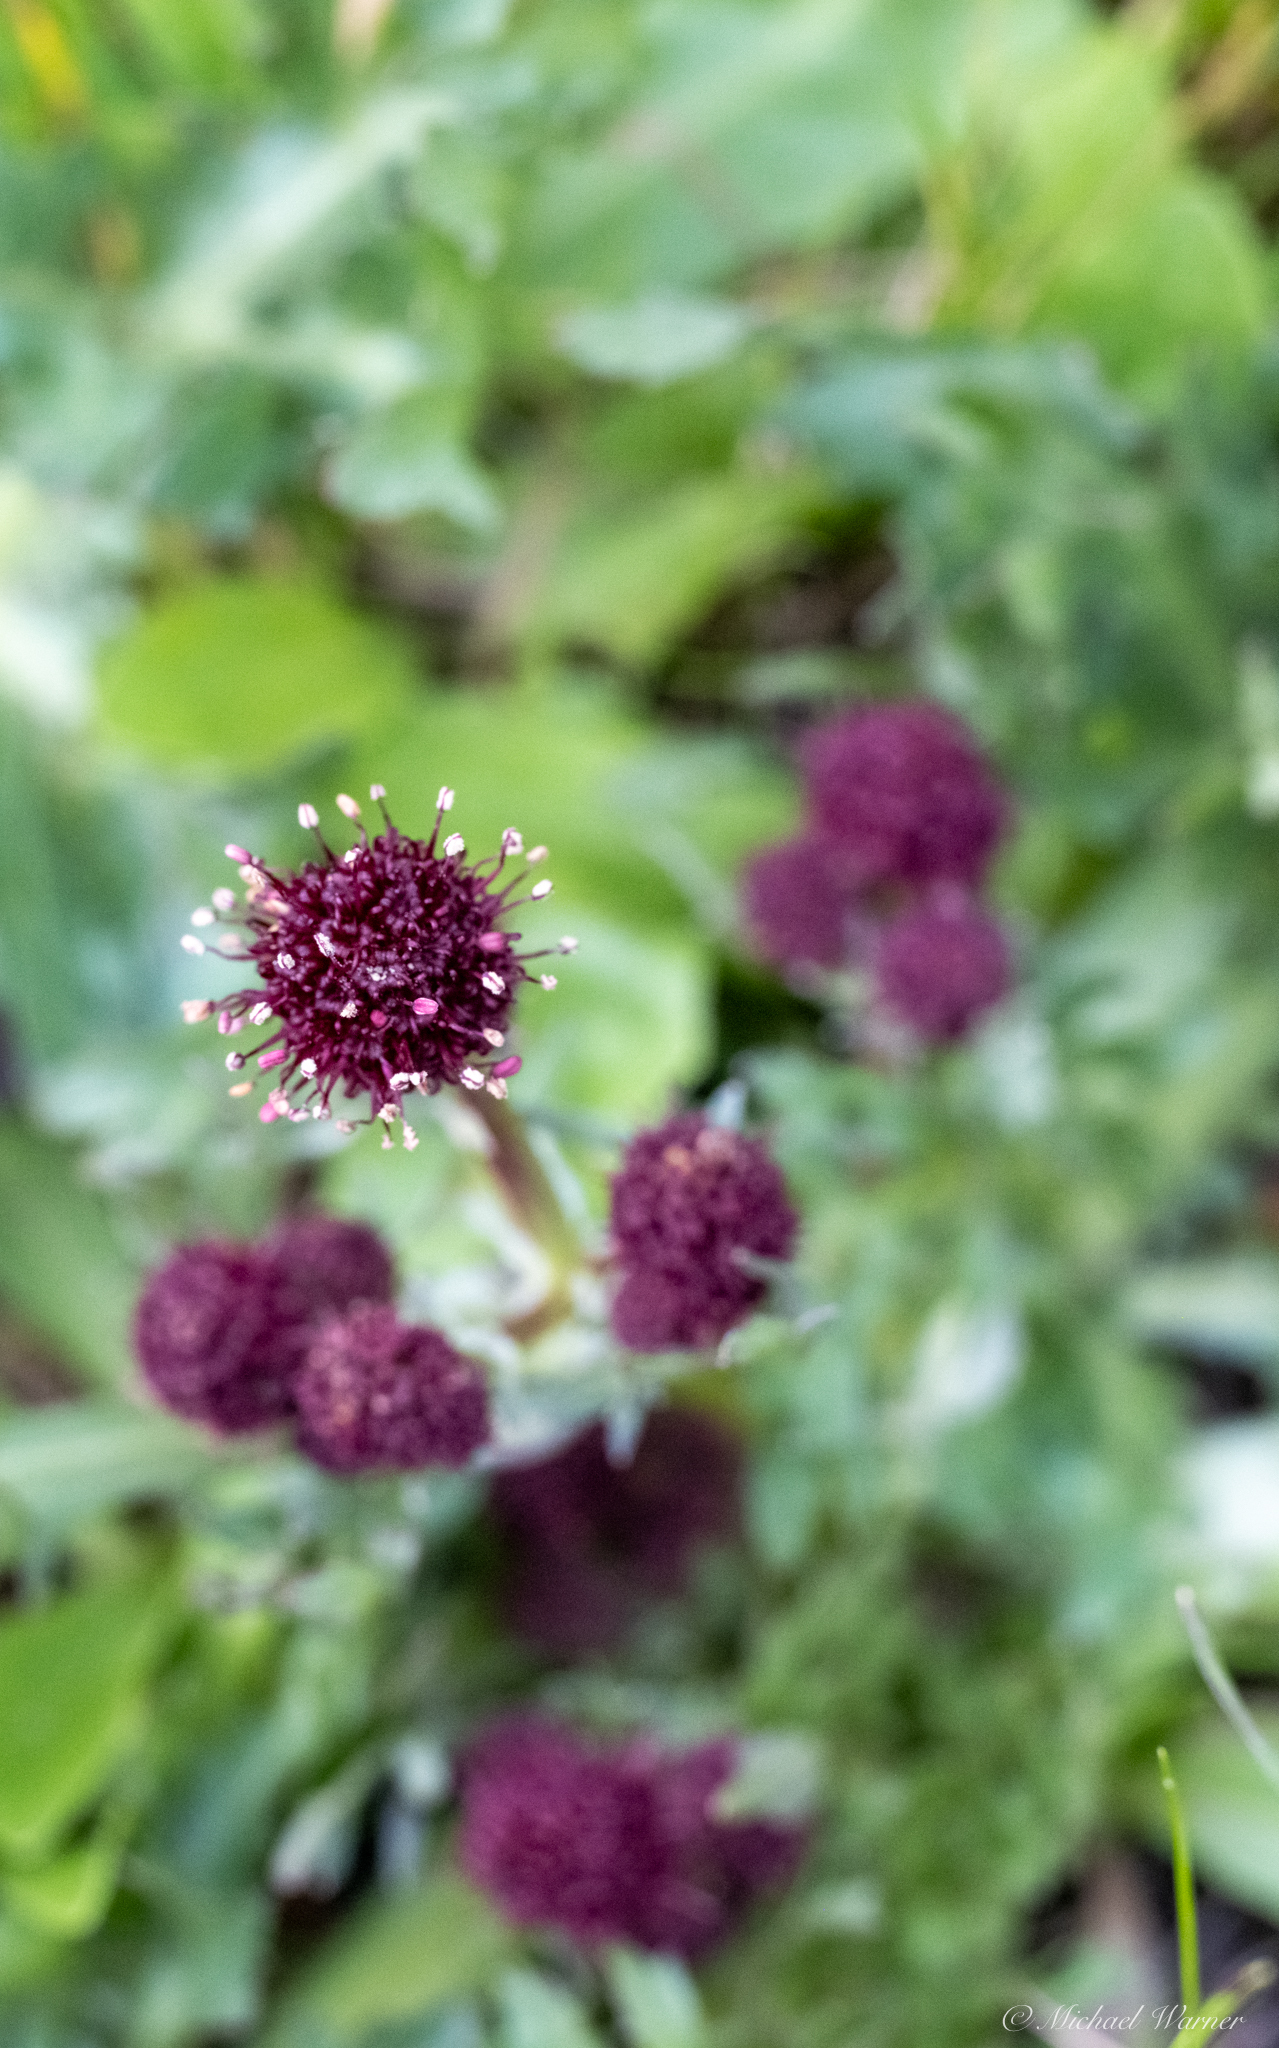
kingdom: Plantae
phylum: Tracheophyta
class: Magnoliopsida
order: Apiales
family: Apiaceae
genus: Sanicula
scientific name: Sanicula bipinnatifida
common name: Shoe-buttons
